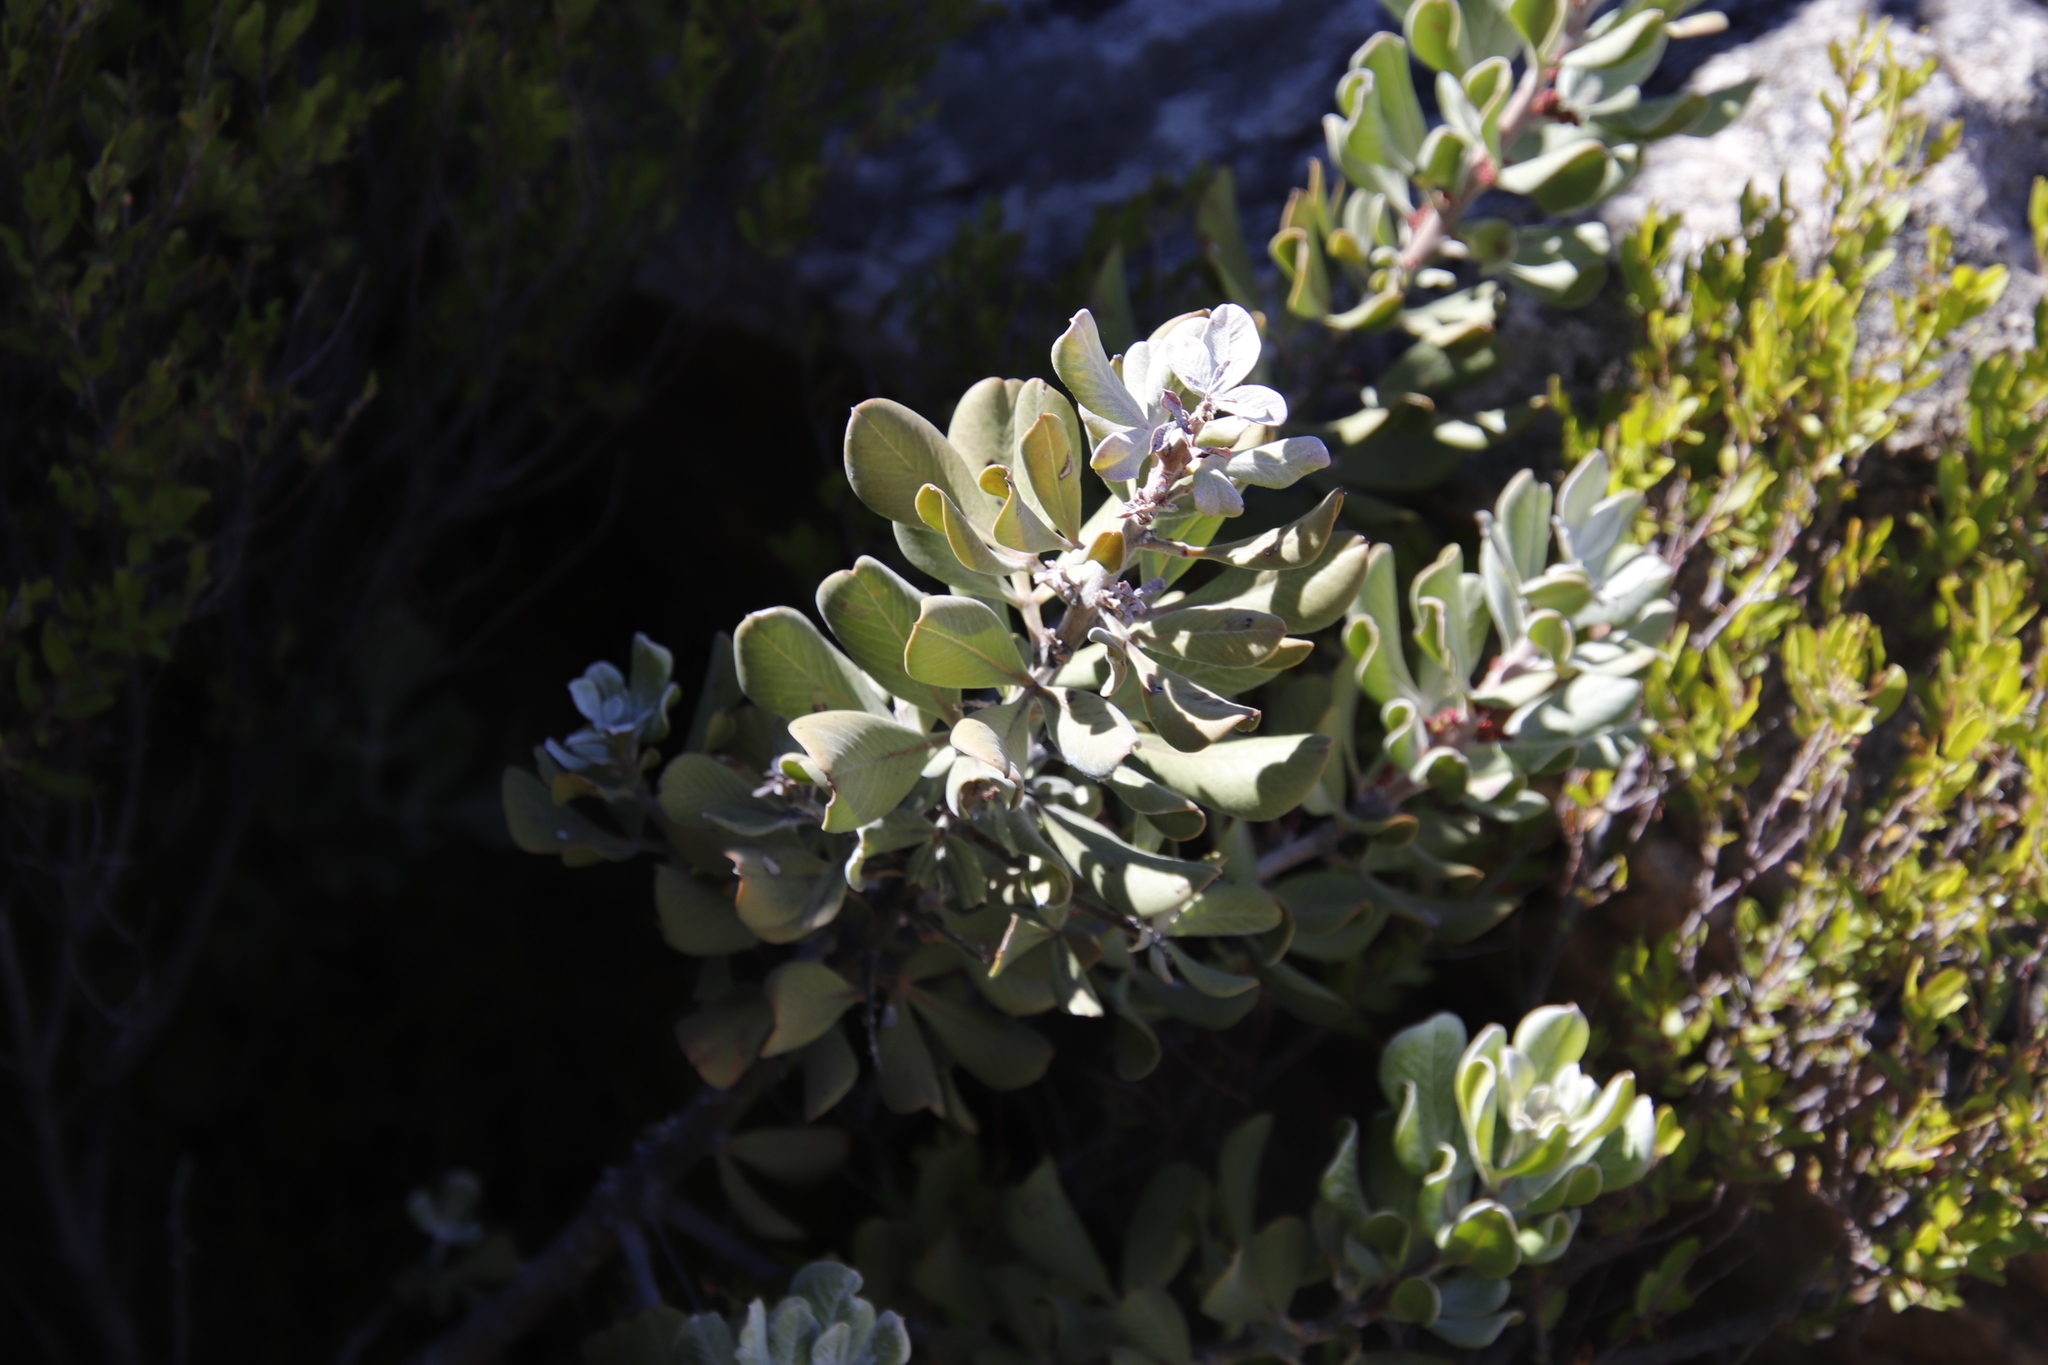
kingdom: Plantae
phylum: Tracheophyta
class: Magnoliopsida
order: Sapindales
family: Anacardiaceae
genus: Searsia
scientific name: Searsia scytophylla
